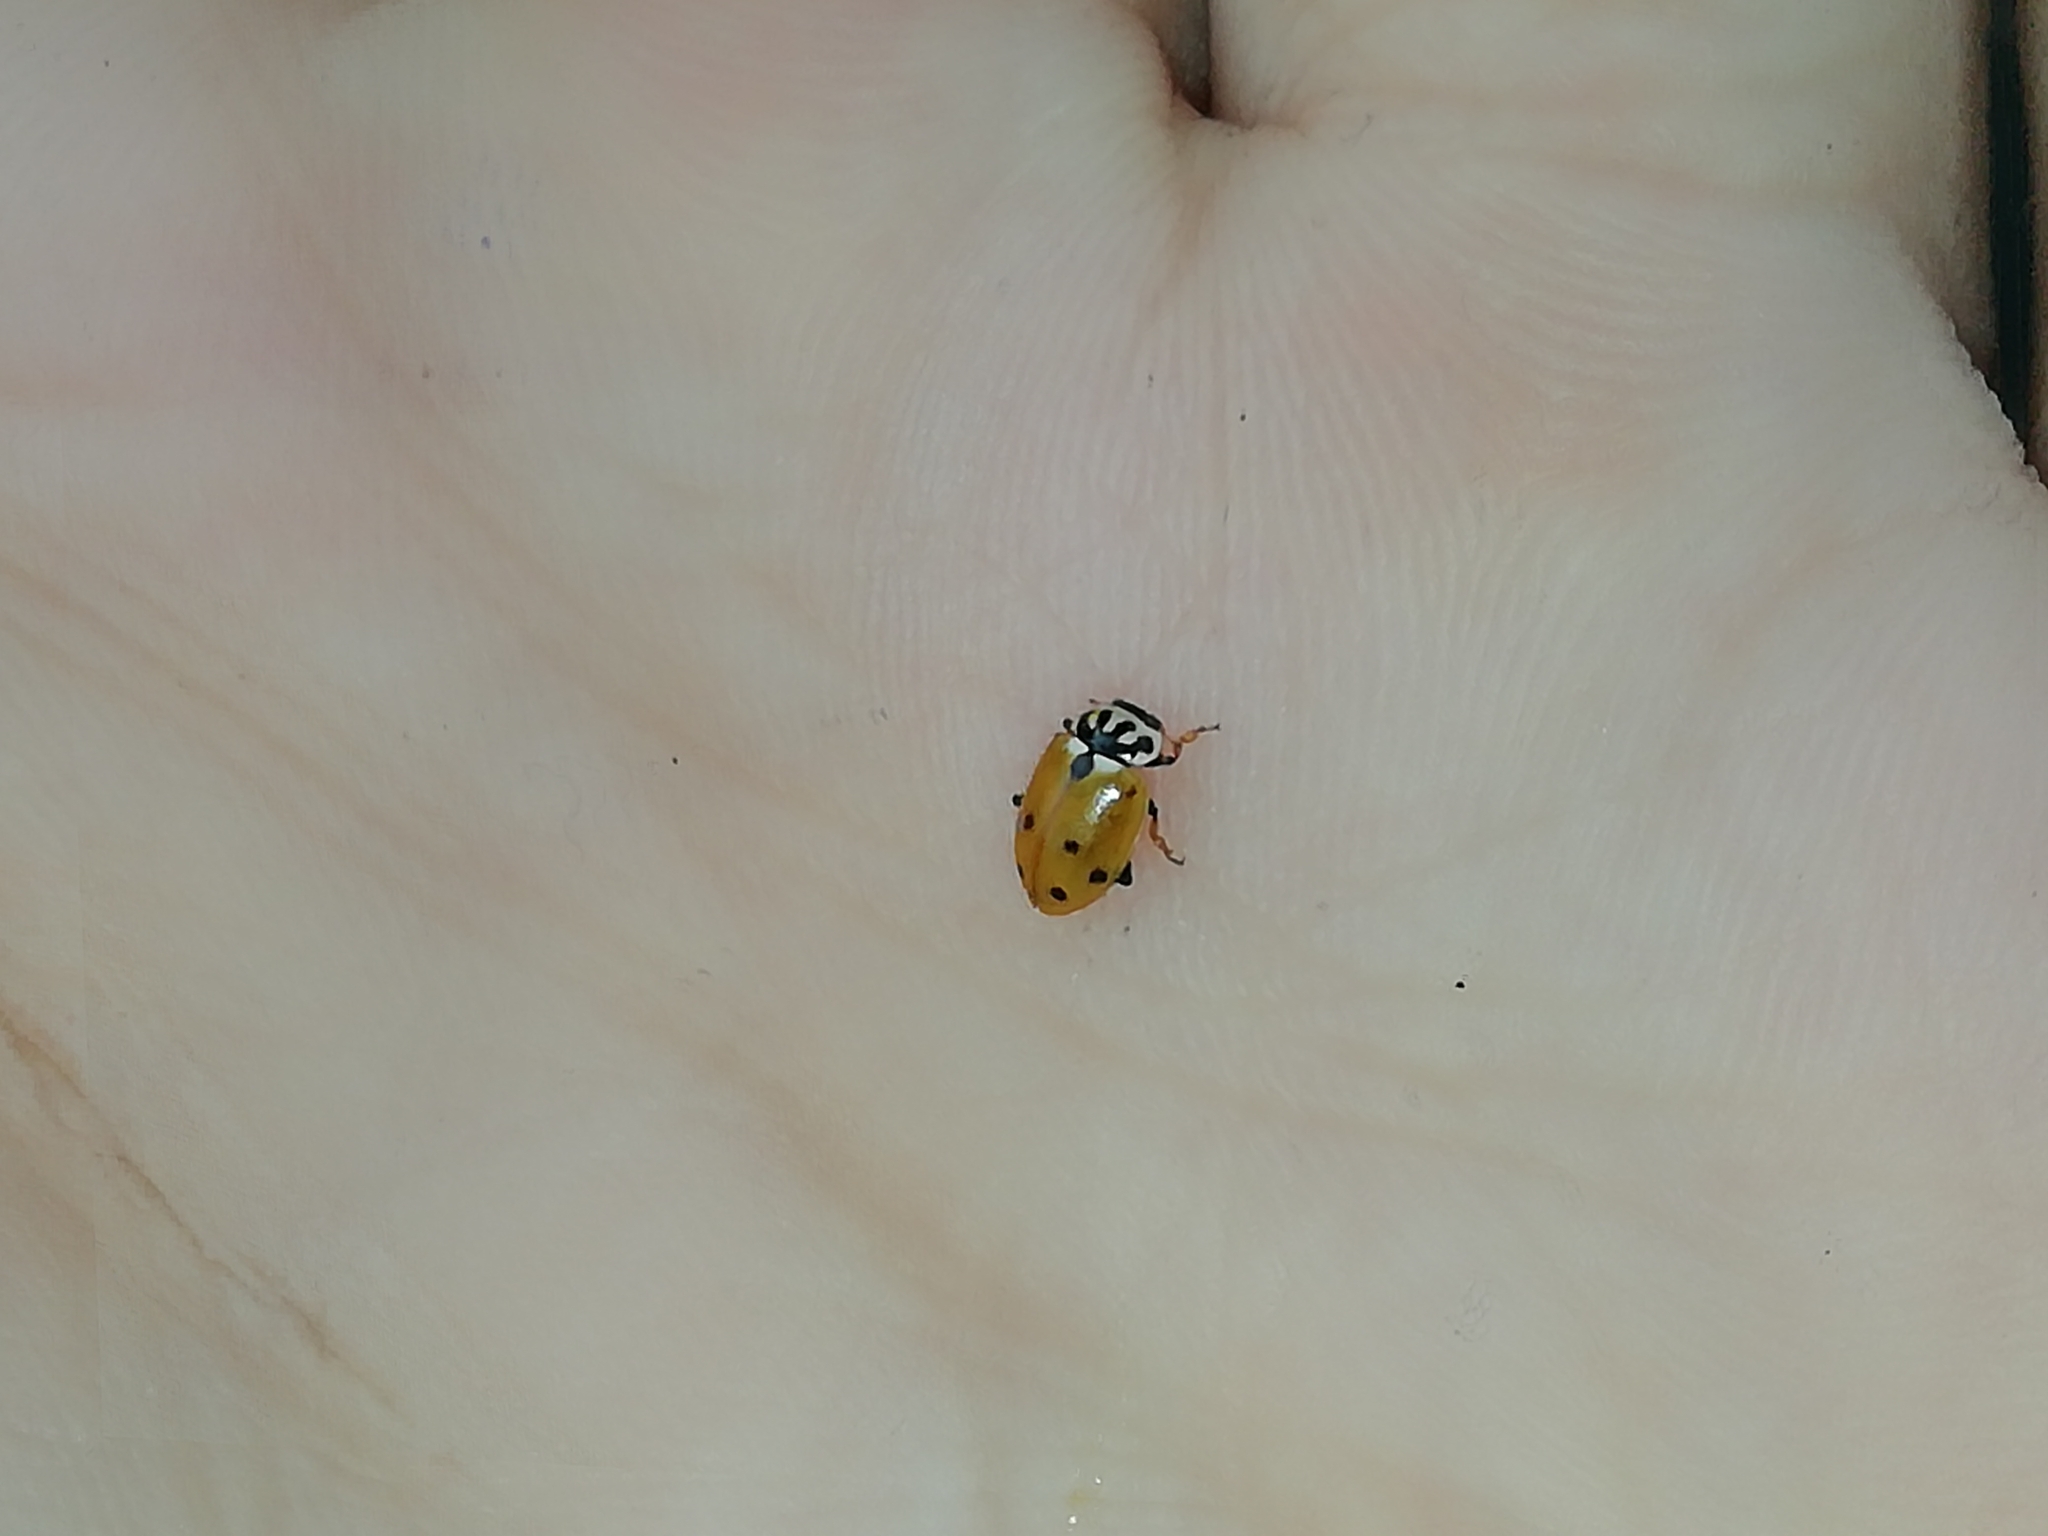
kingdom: Animalia
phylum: Arthropoda
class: Insecta
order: Coleoptera
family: Coccinellidae
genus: Hippodamia
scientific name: Hippodamia variegata
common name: Ladybird beetle
